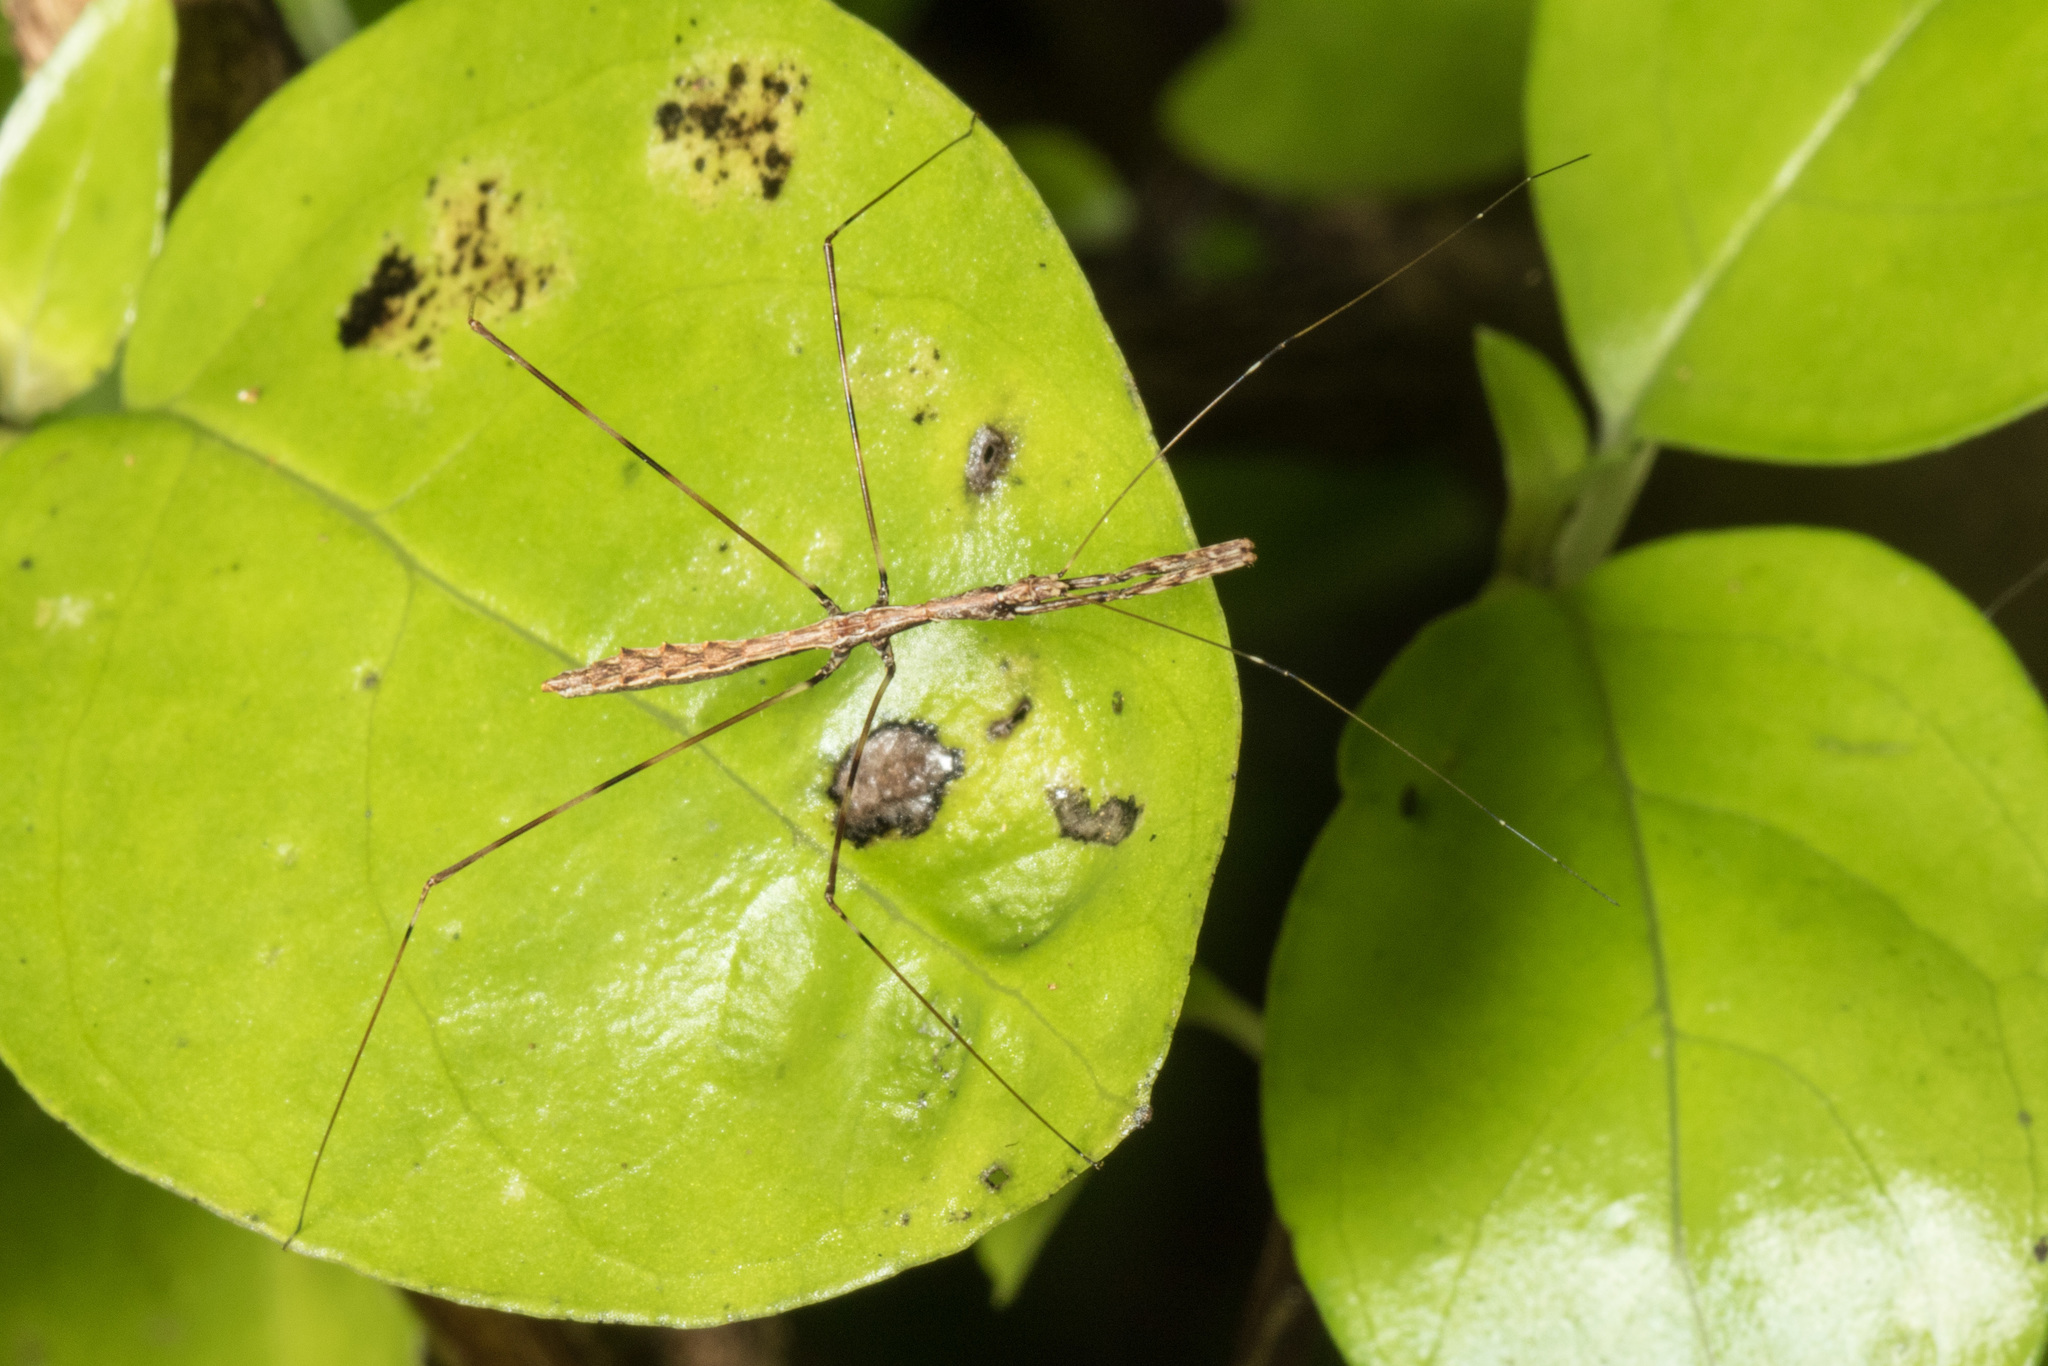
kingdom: Animalia
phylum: Arthropoda
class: Insecta
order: Hemiptera
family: Reduviidae
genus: Ploiaria
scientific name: Ploiaria antipodum
